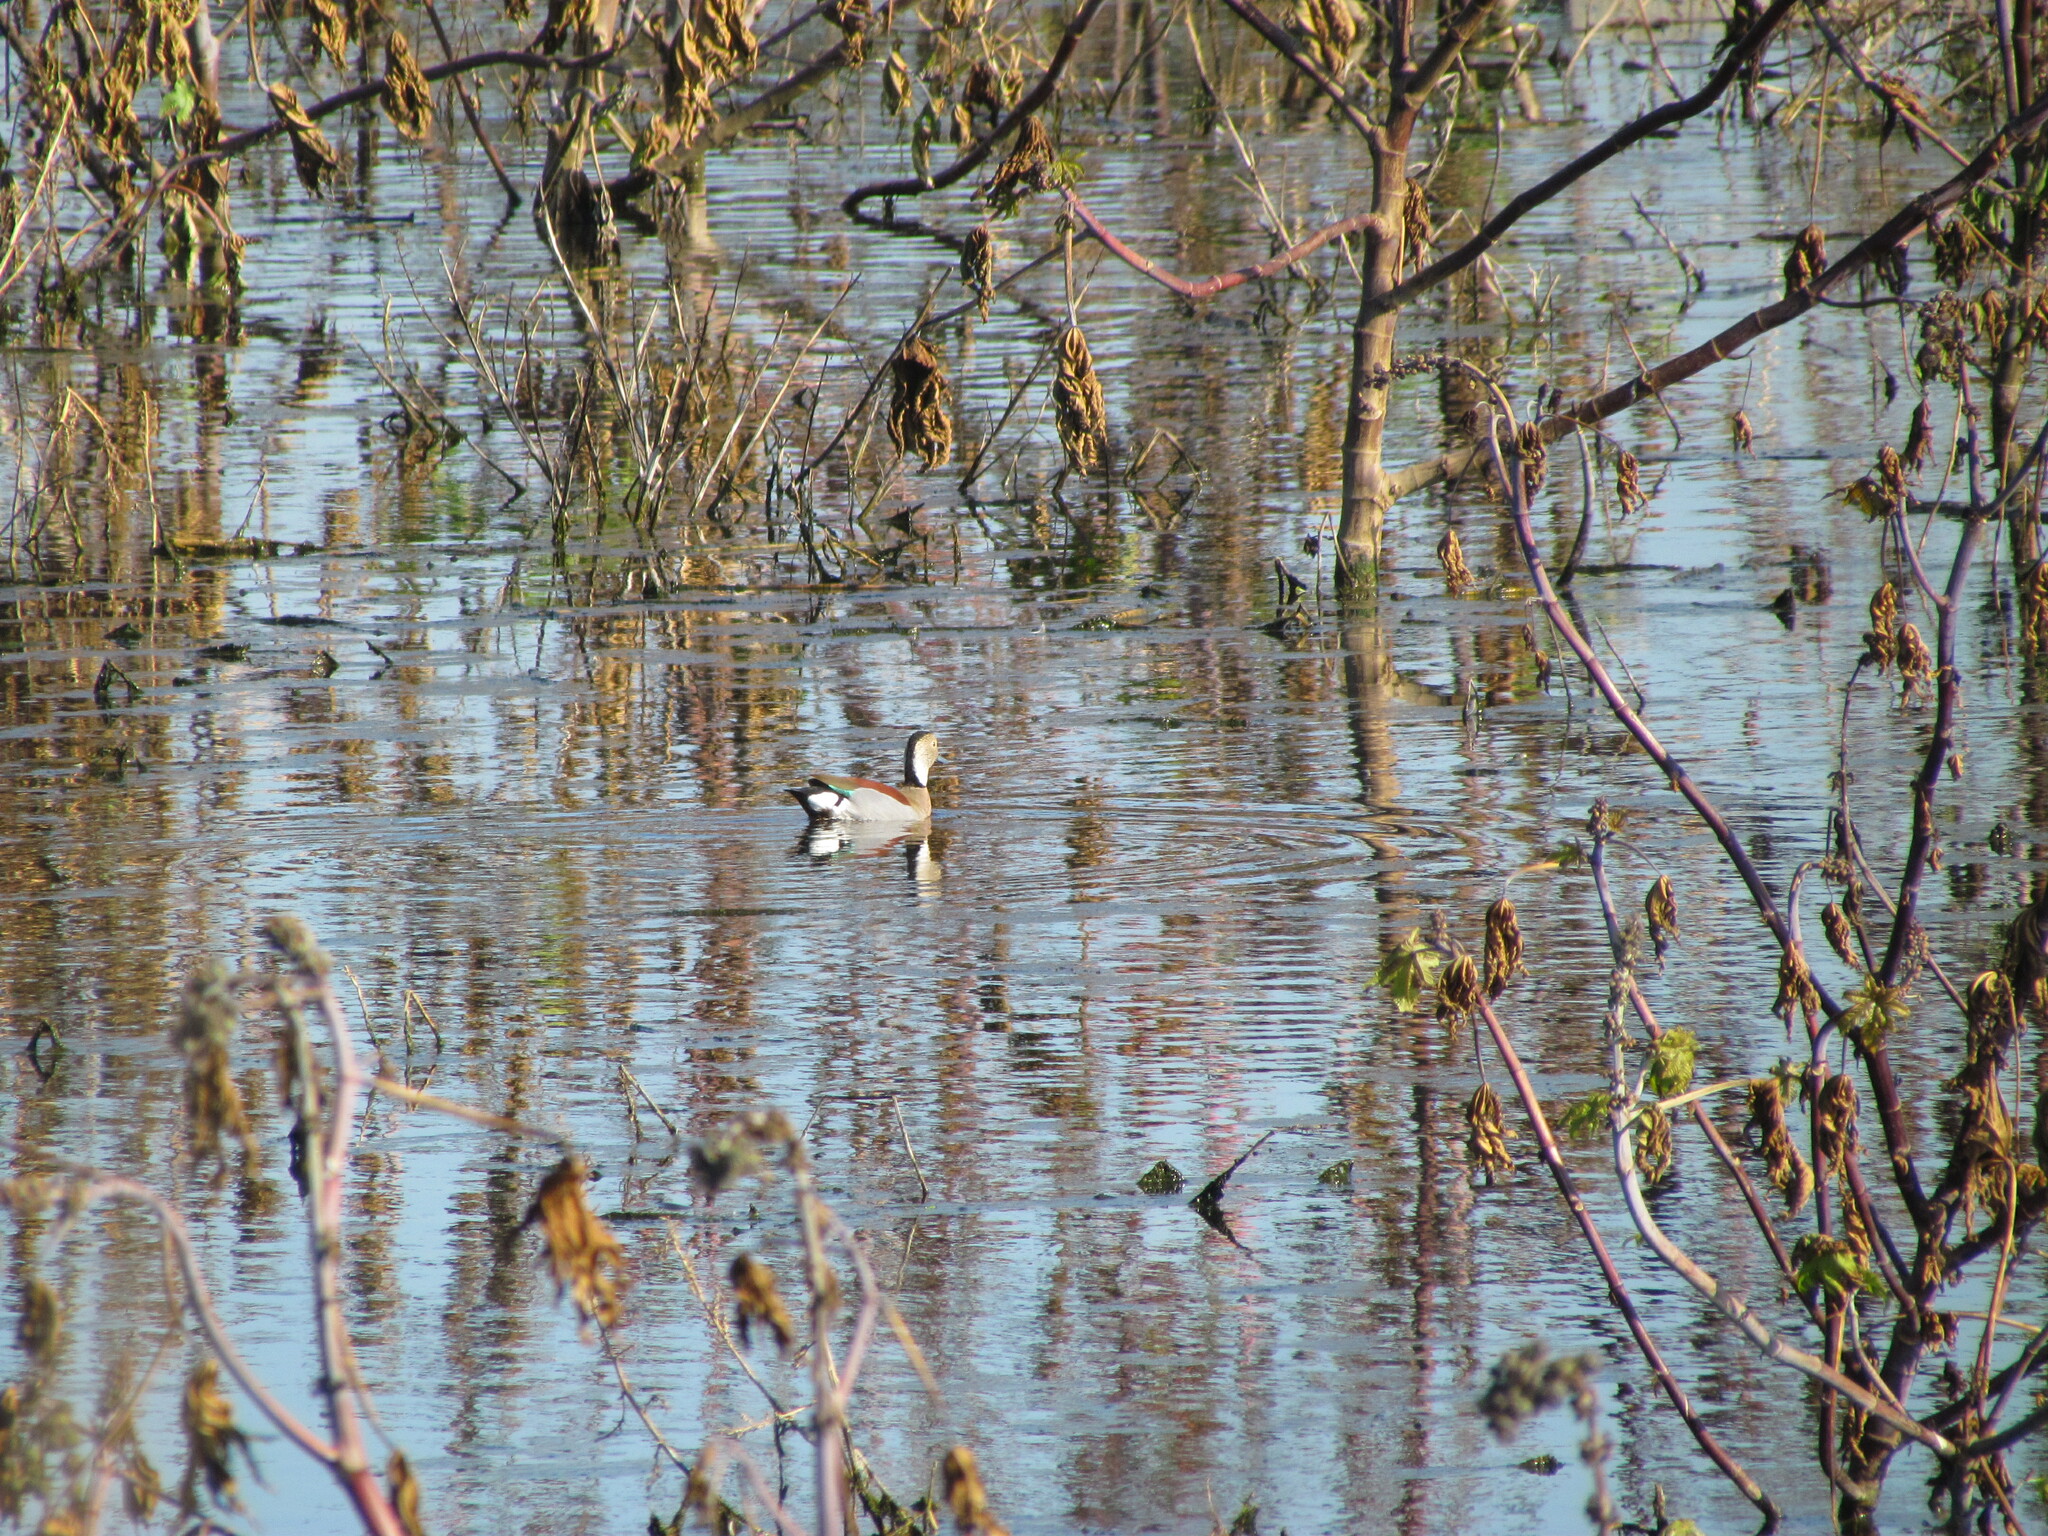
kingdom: Animalia
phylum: Chordata
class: Aves
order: Anseriformes
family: Anatidae
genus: Callonetta
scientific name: Callonetta leucophrys
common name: Ringed teal
